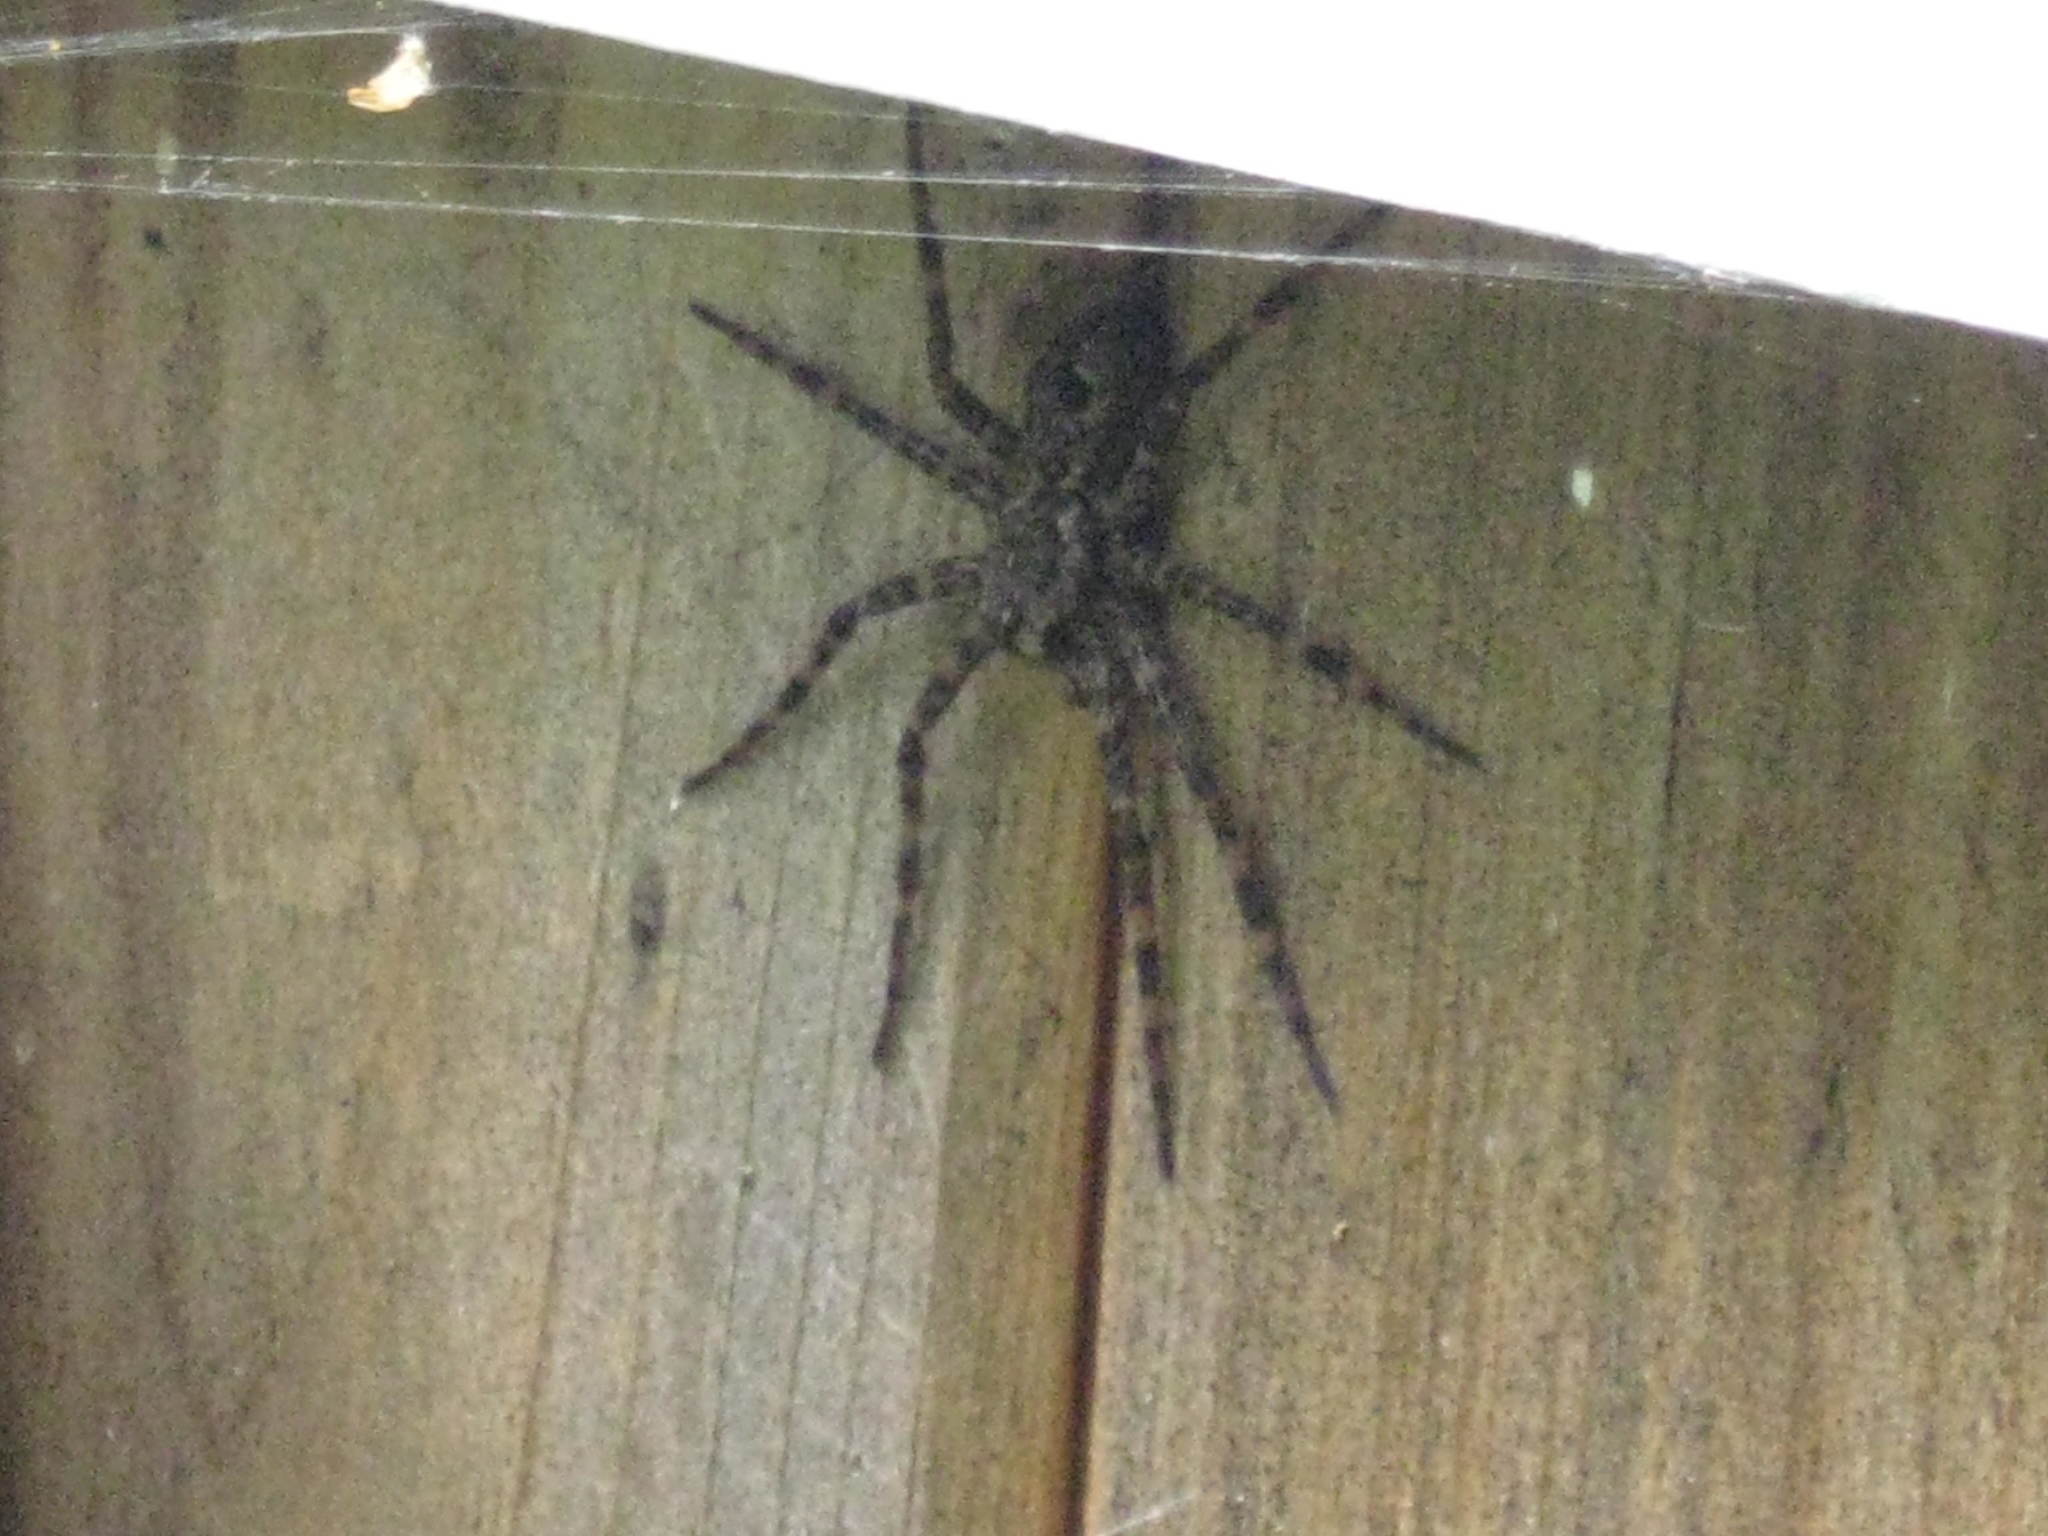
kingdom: Animalia
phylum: Arthropoda
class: Arachnida
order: Araneae
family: Pisauridae
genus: Dolomedes
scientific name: Dolomedes tenebrosus
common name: Dark fishing spider
